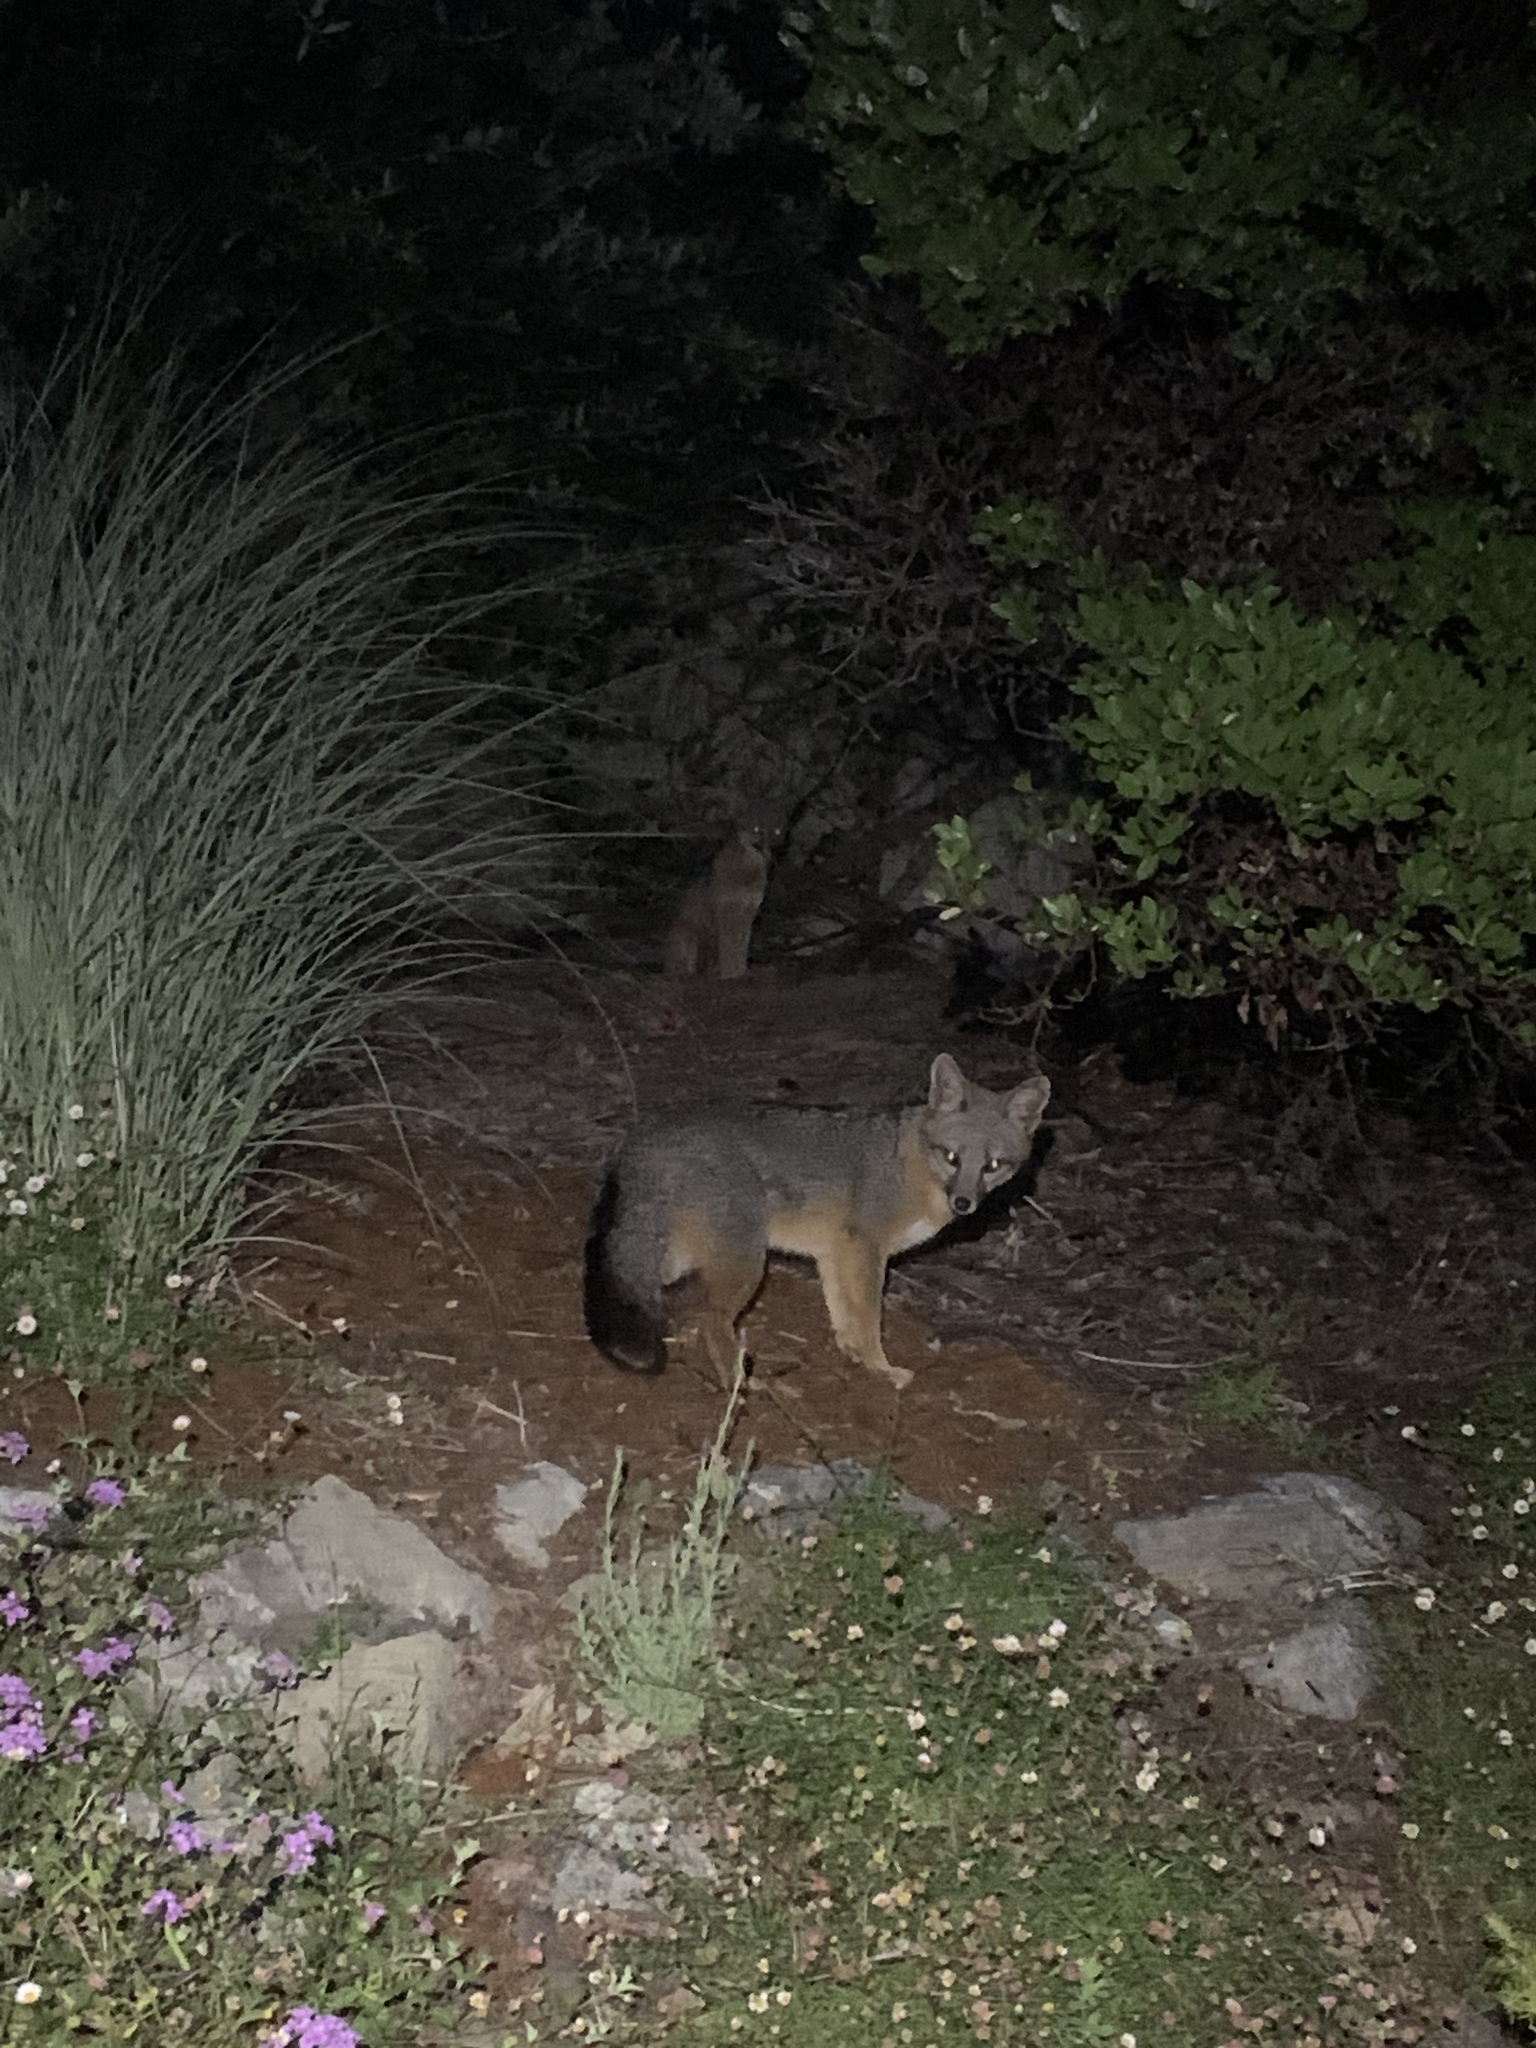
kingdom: Animalia
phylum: Chordata
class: Mammalia
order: Carnivora
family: Canidae
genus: Urocyon
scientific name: Urocyon cinereoargenteus
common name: Gray fox
